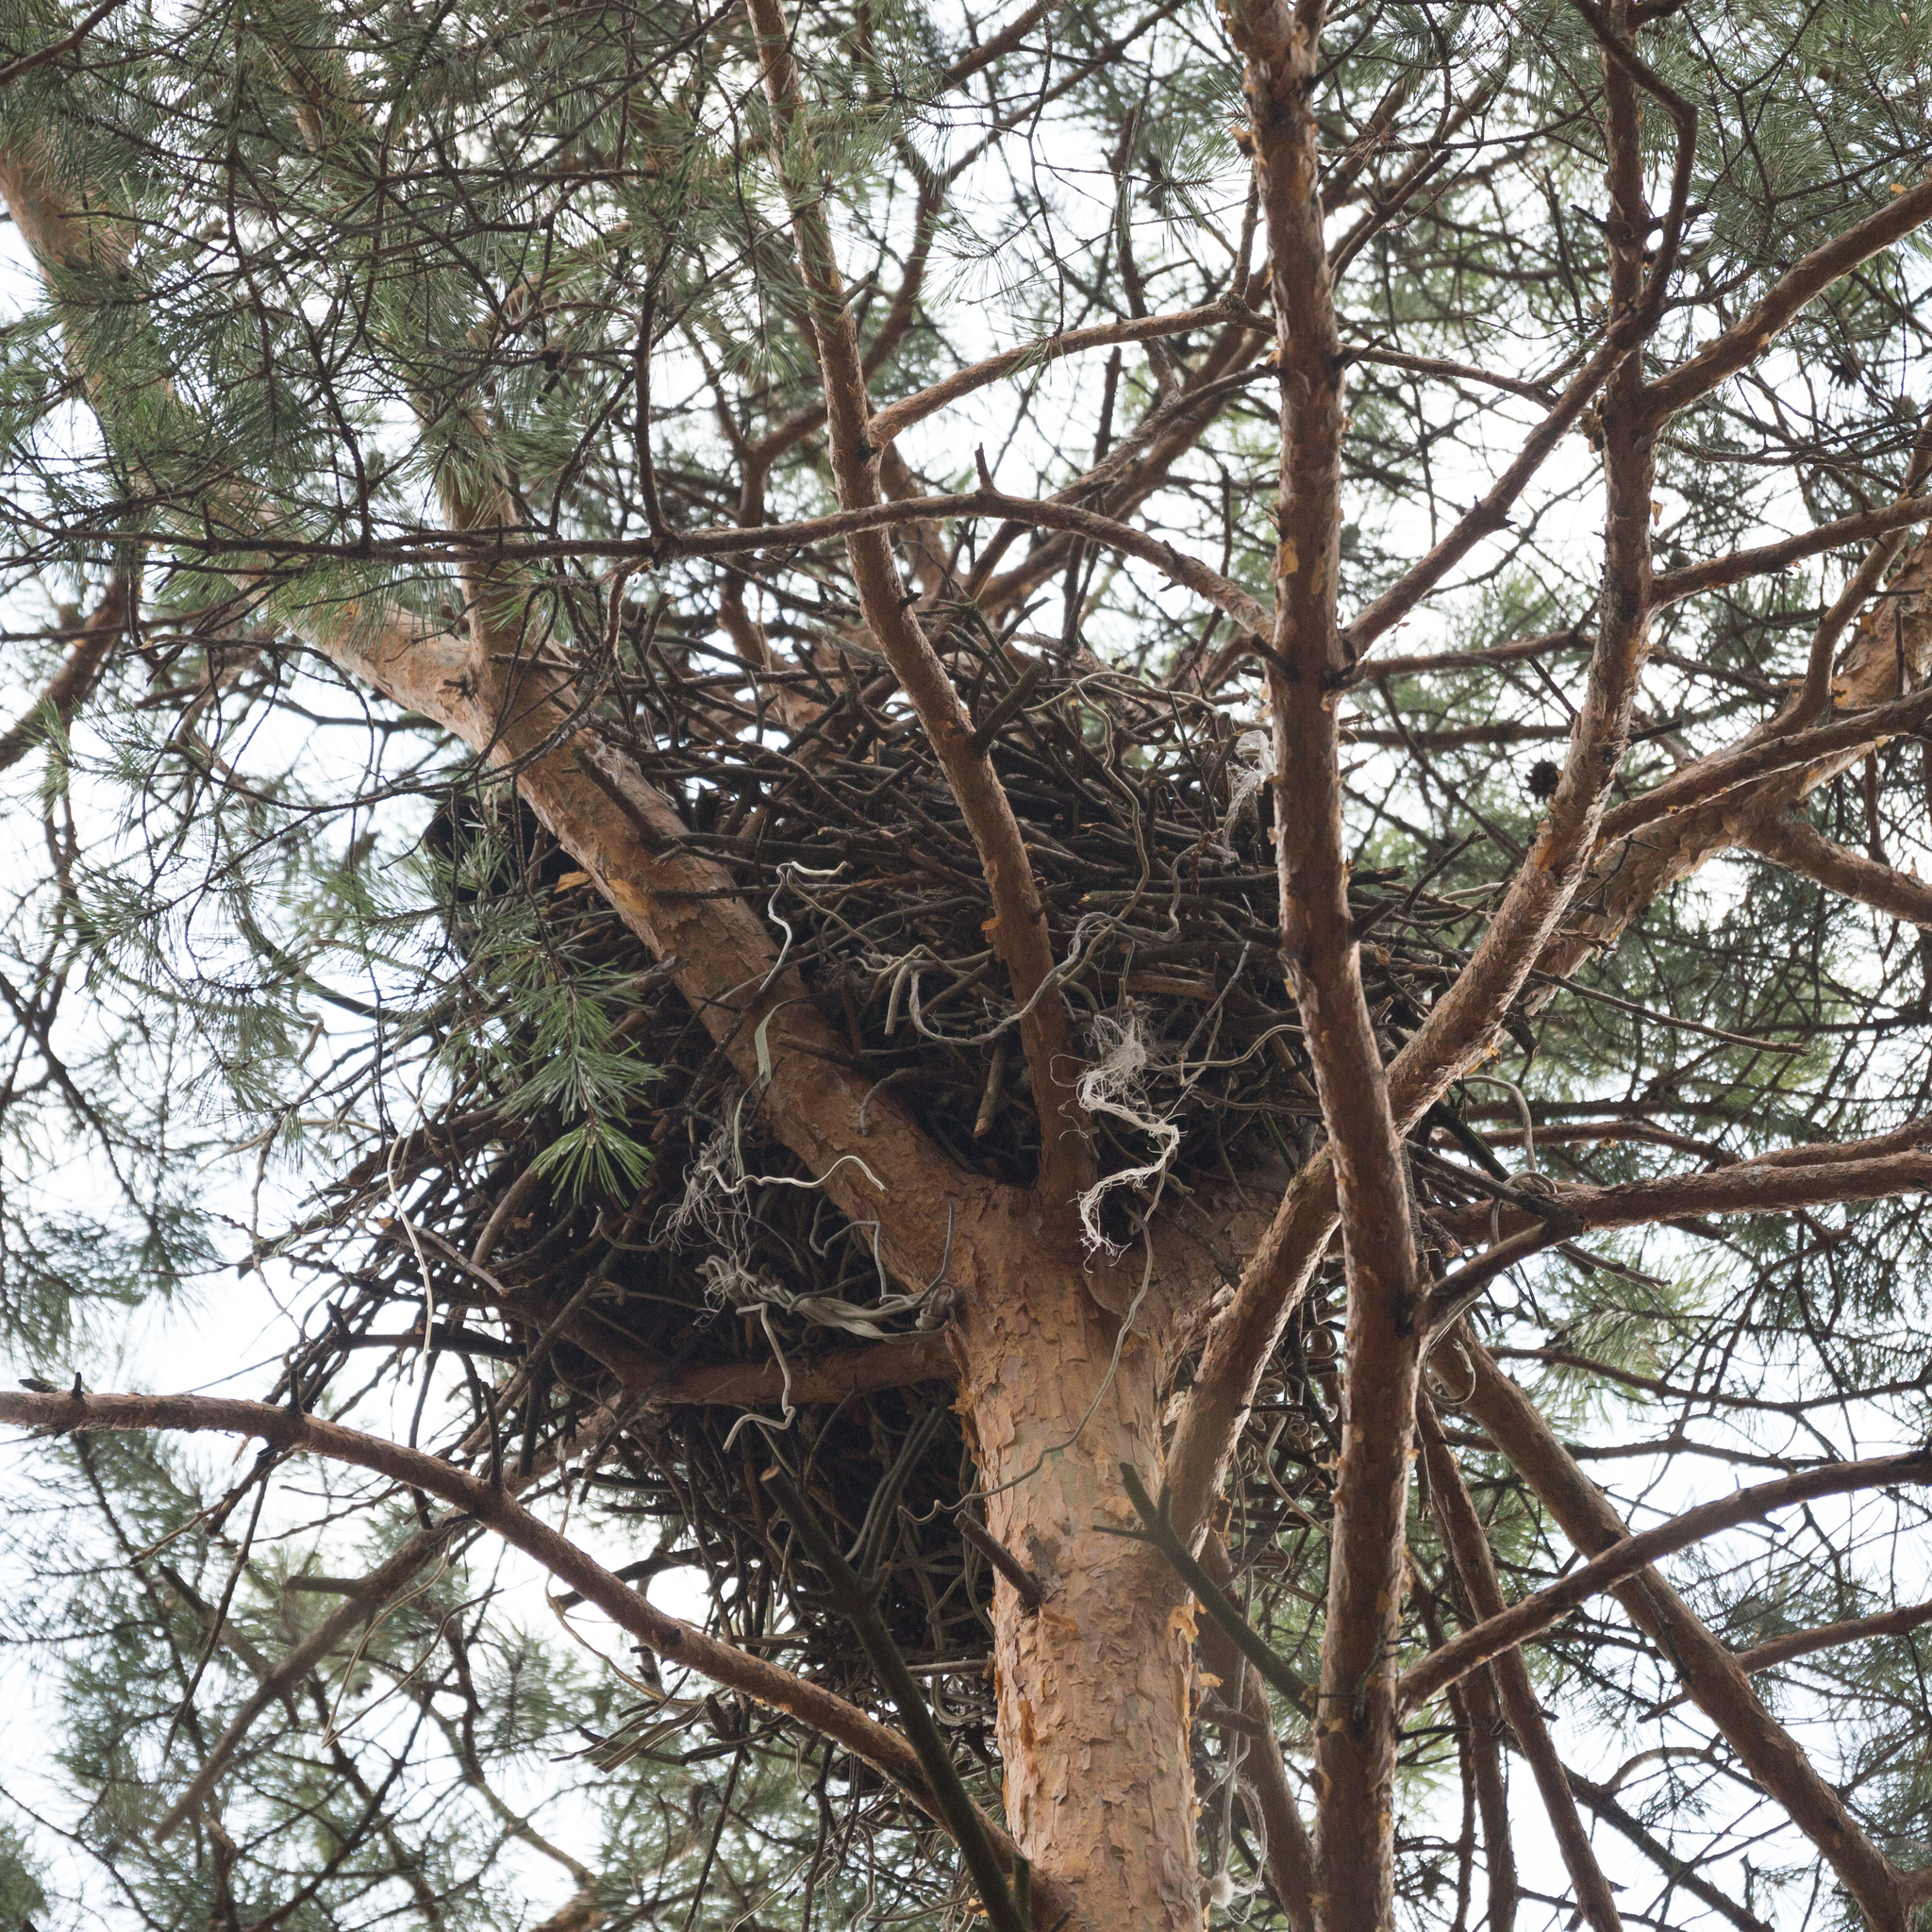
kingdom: Animalia
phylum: Chordata
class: Aves
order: Passeriformes
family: Corvidae
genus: Corvus
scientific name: Corvus corax
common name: Common raven
